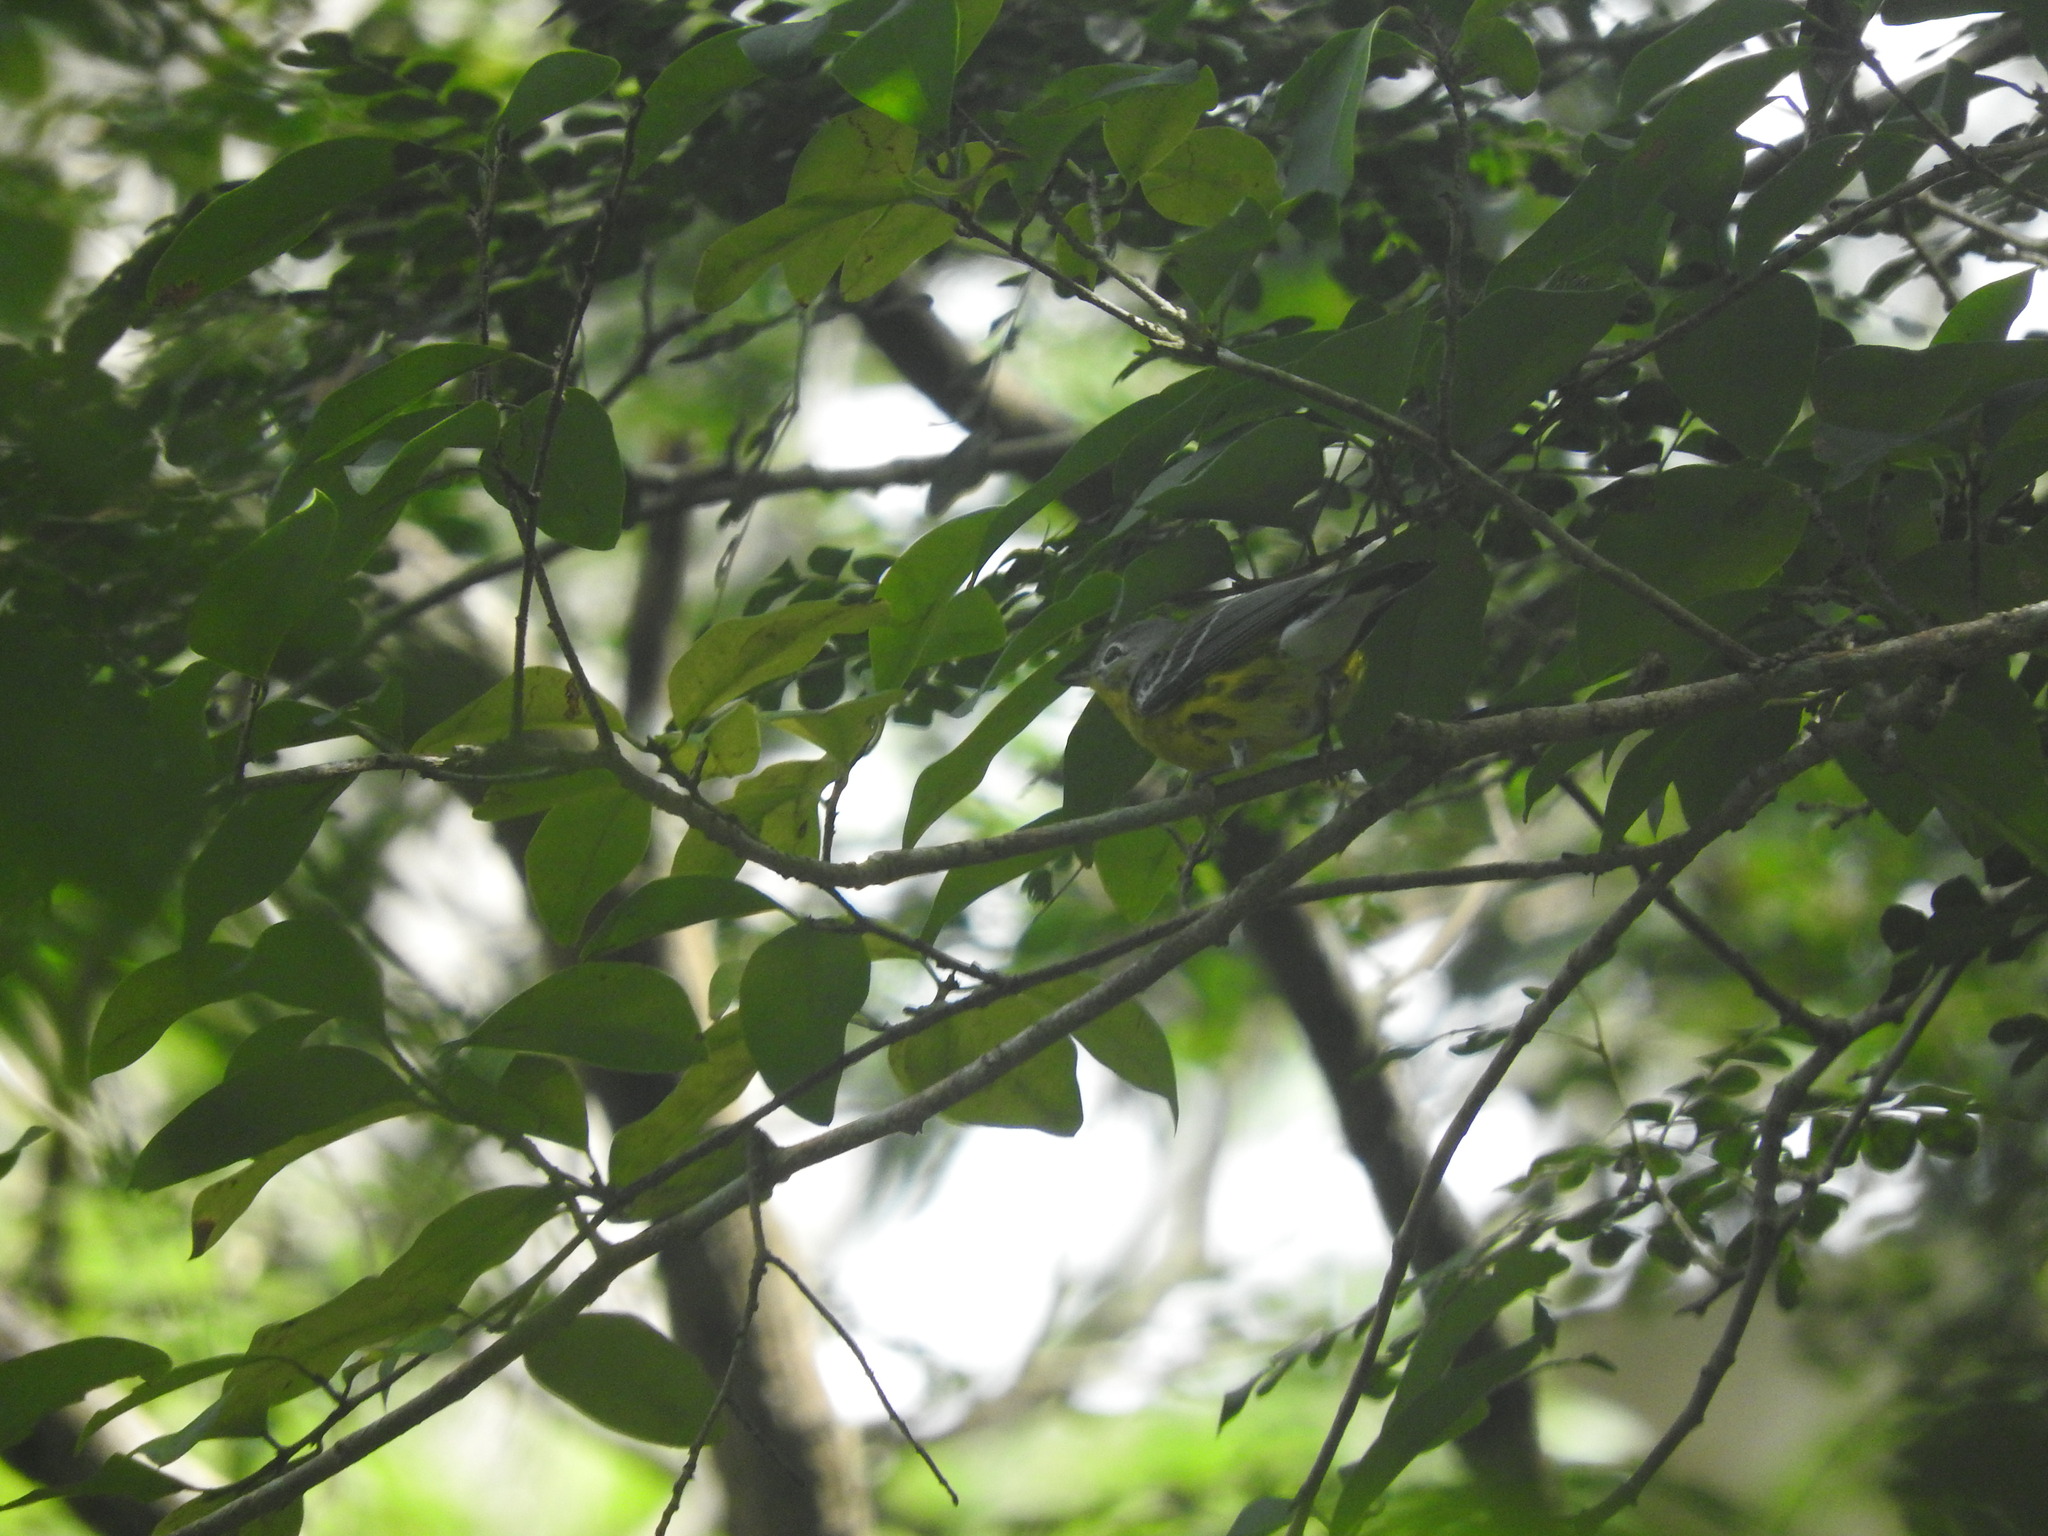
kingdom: Animalia
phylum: Chordata
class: Aves
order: Passeriformes
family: Parulidae
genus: Setophaga
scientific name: Setophaga magnolia
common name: Magnolia warbler
